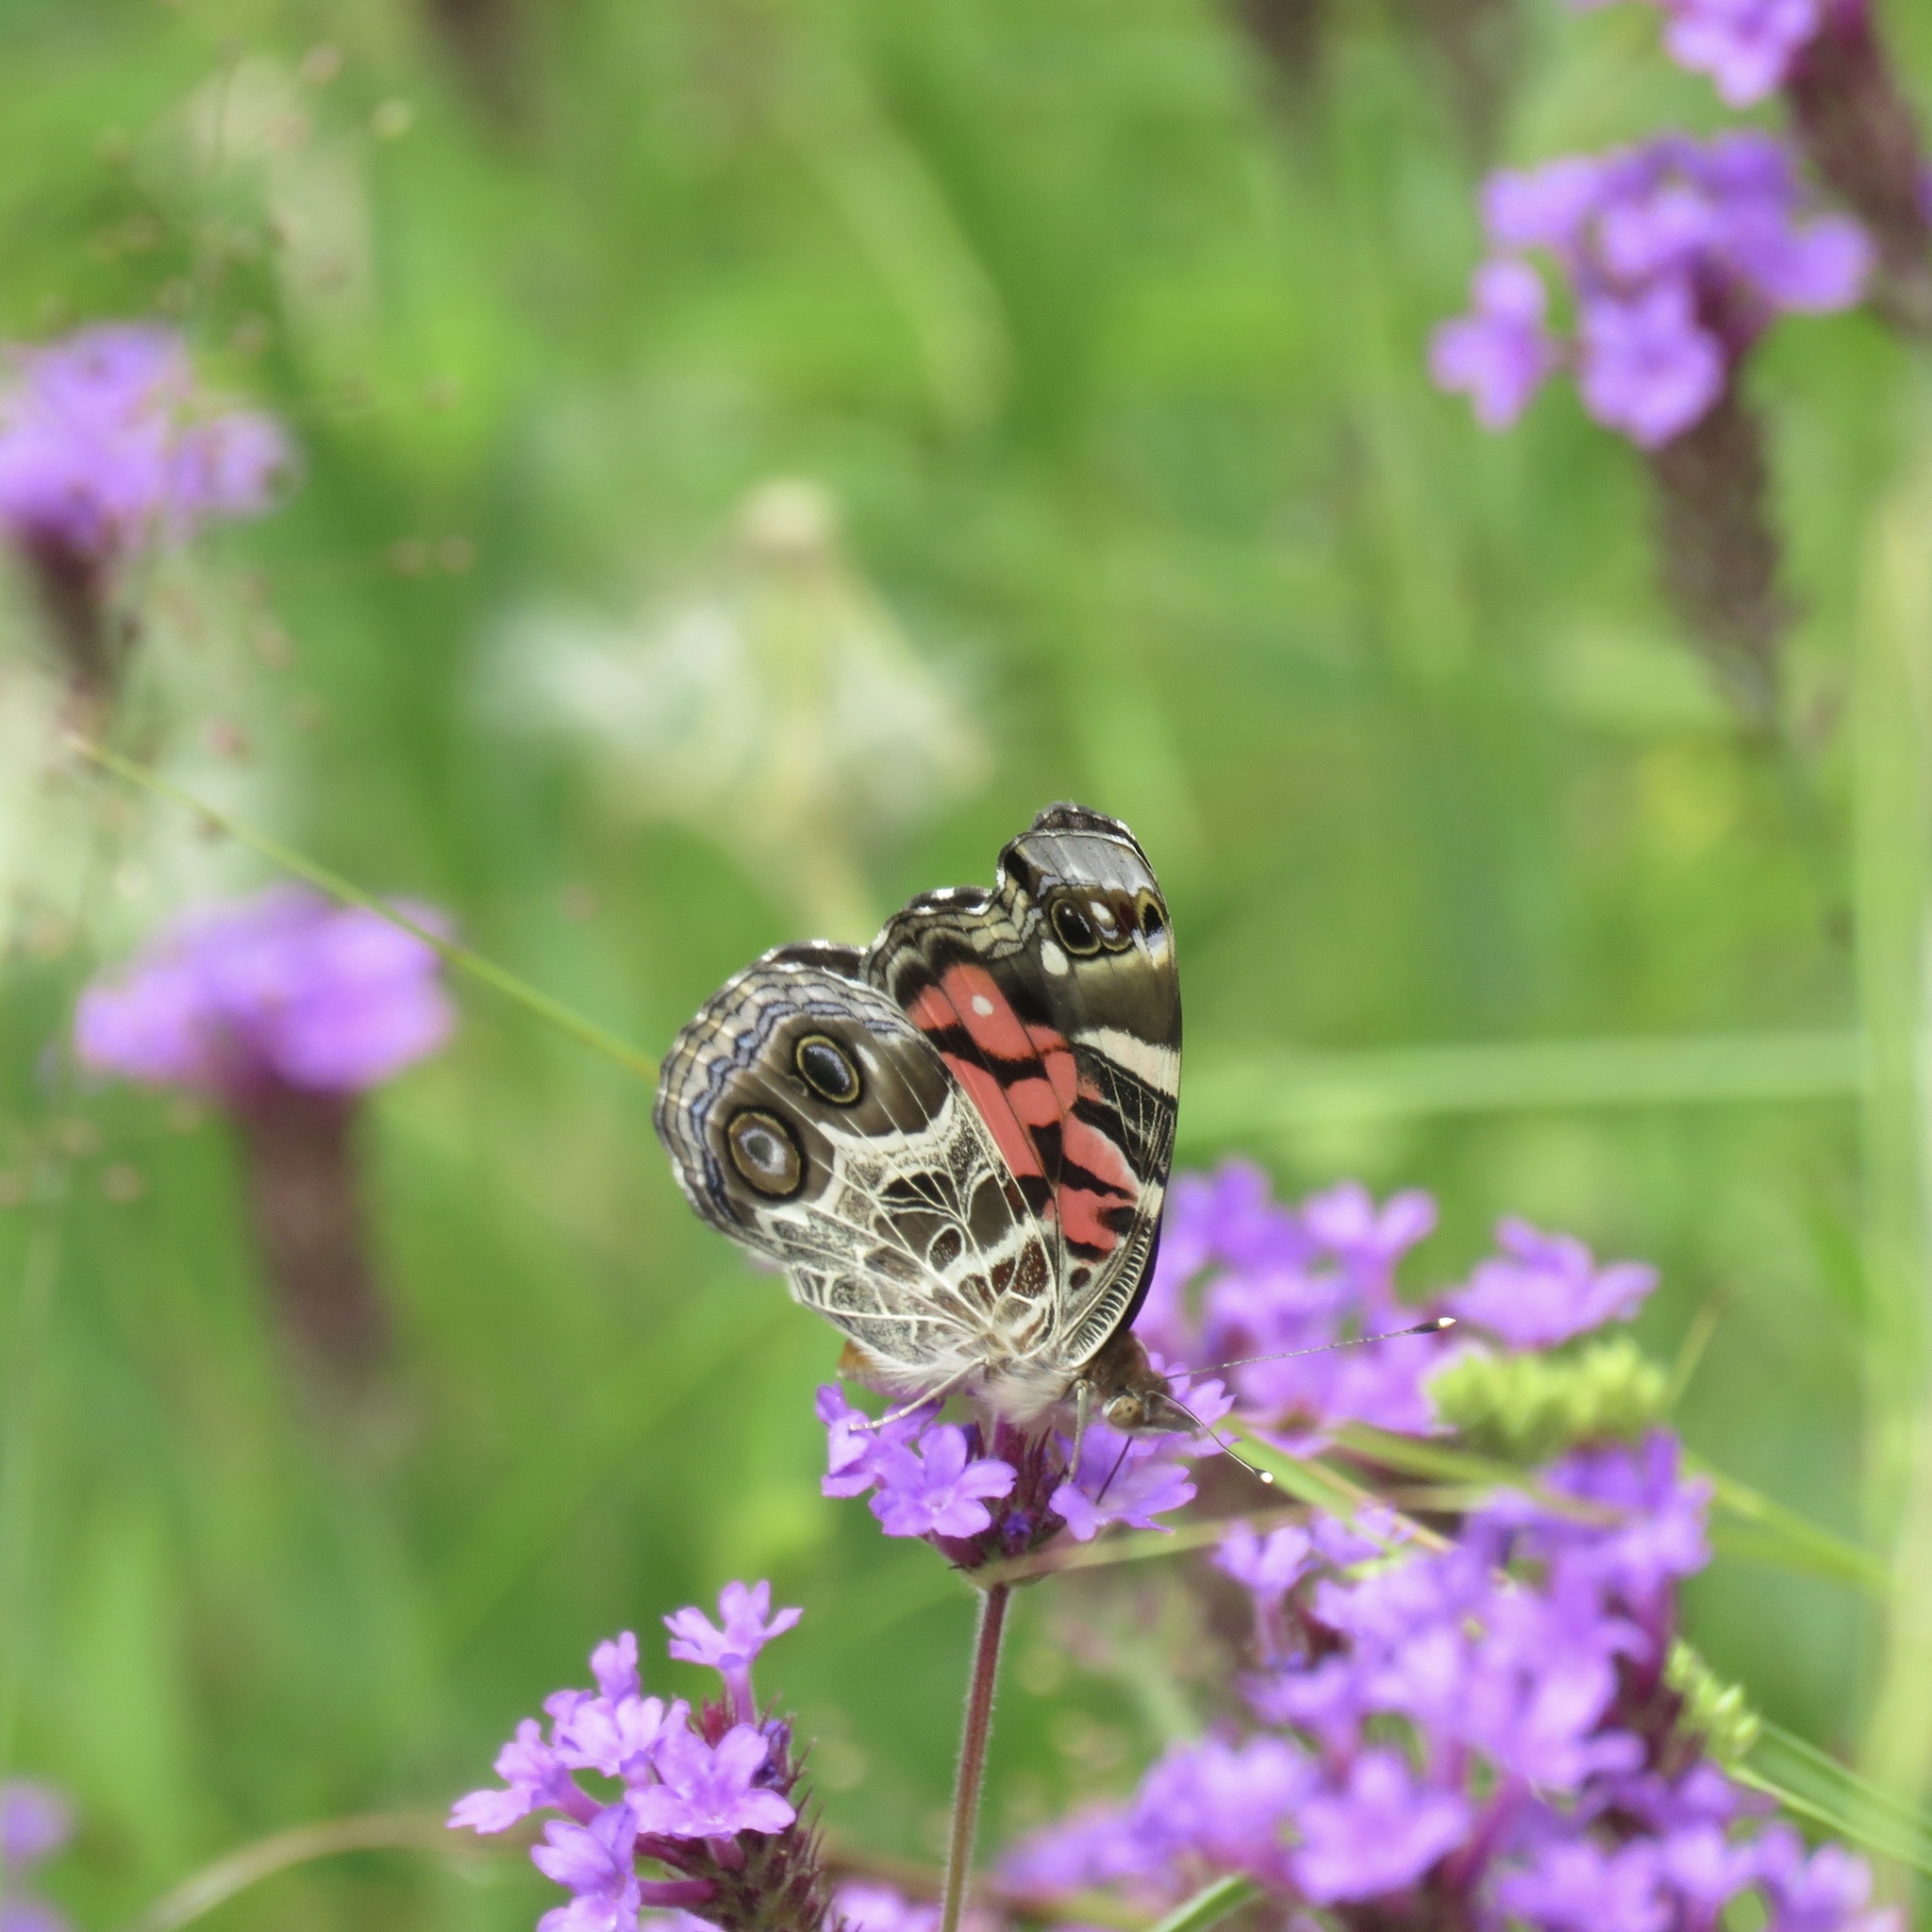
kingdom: Animalia
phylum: Arthropoda
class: Insecta
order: Lepidoptera
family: Nymphalidae
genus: Vanessa
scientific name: Vanessa virginiensis
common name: American lady
